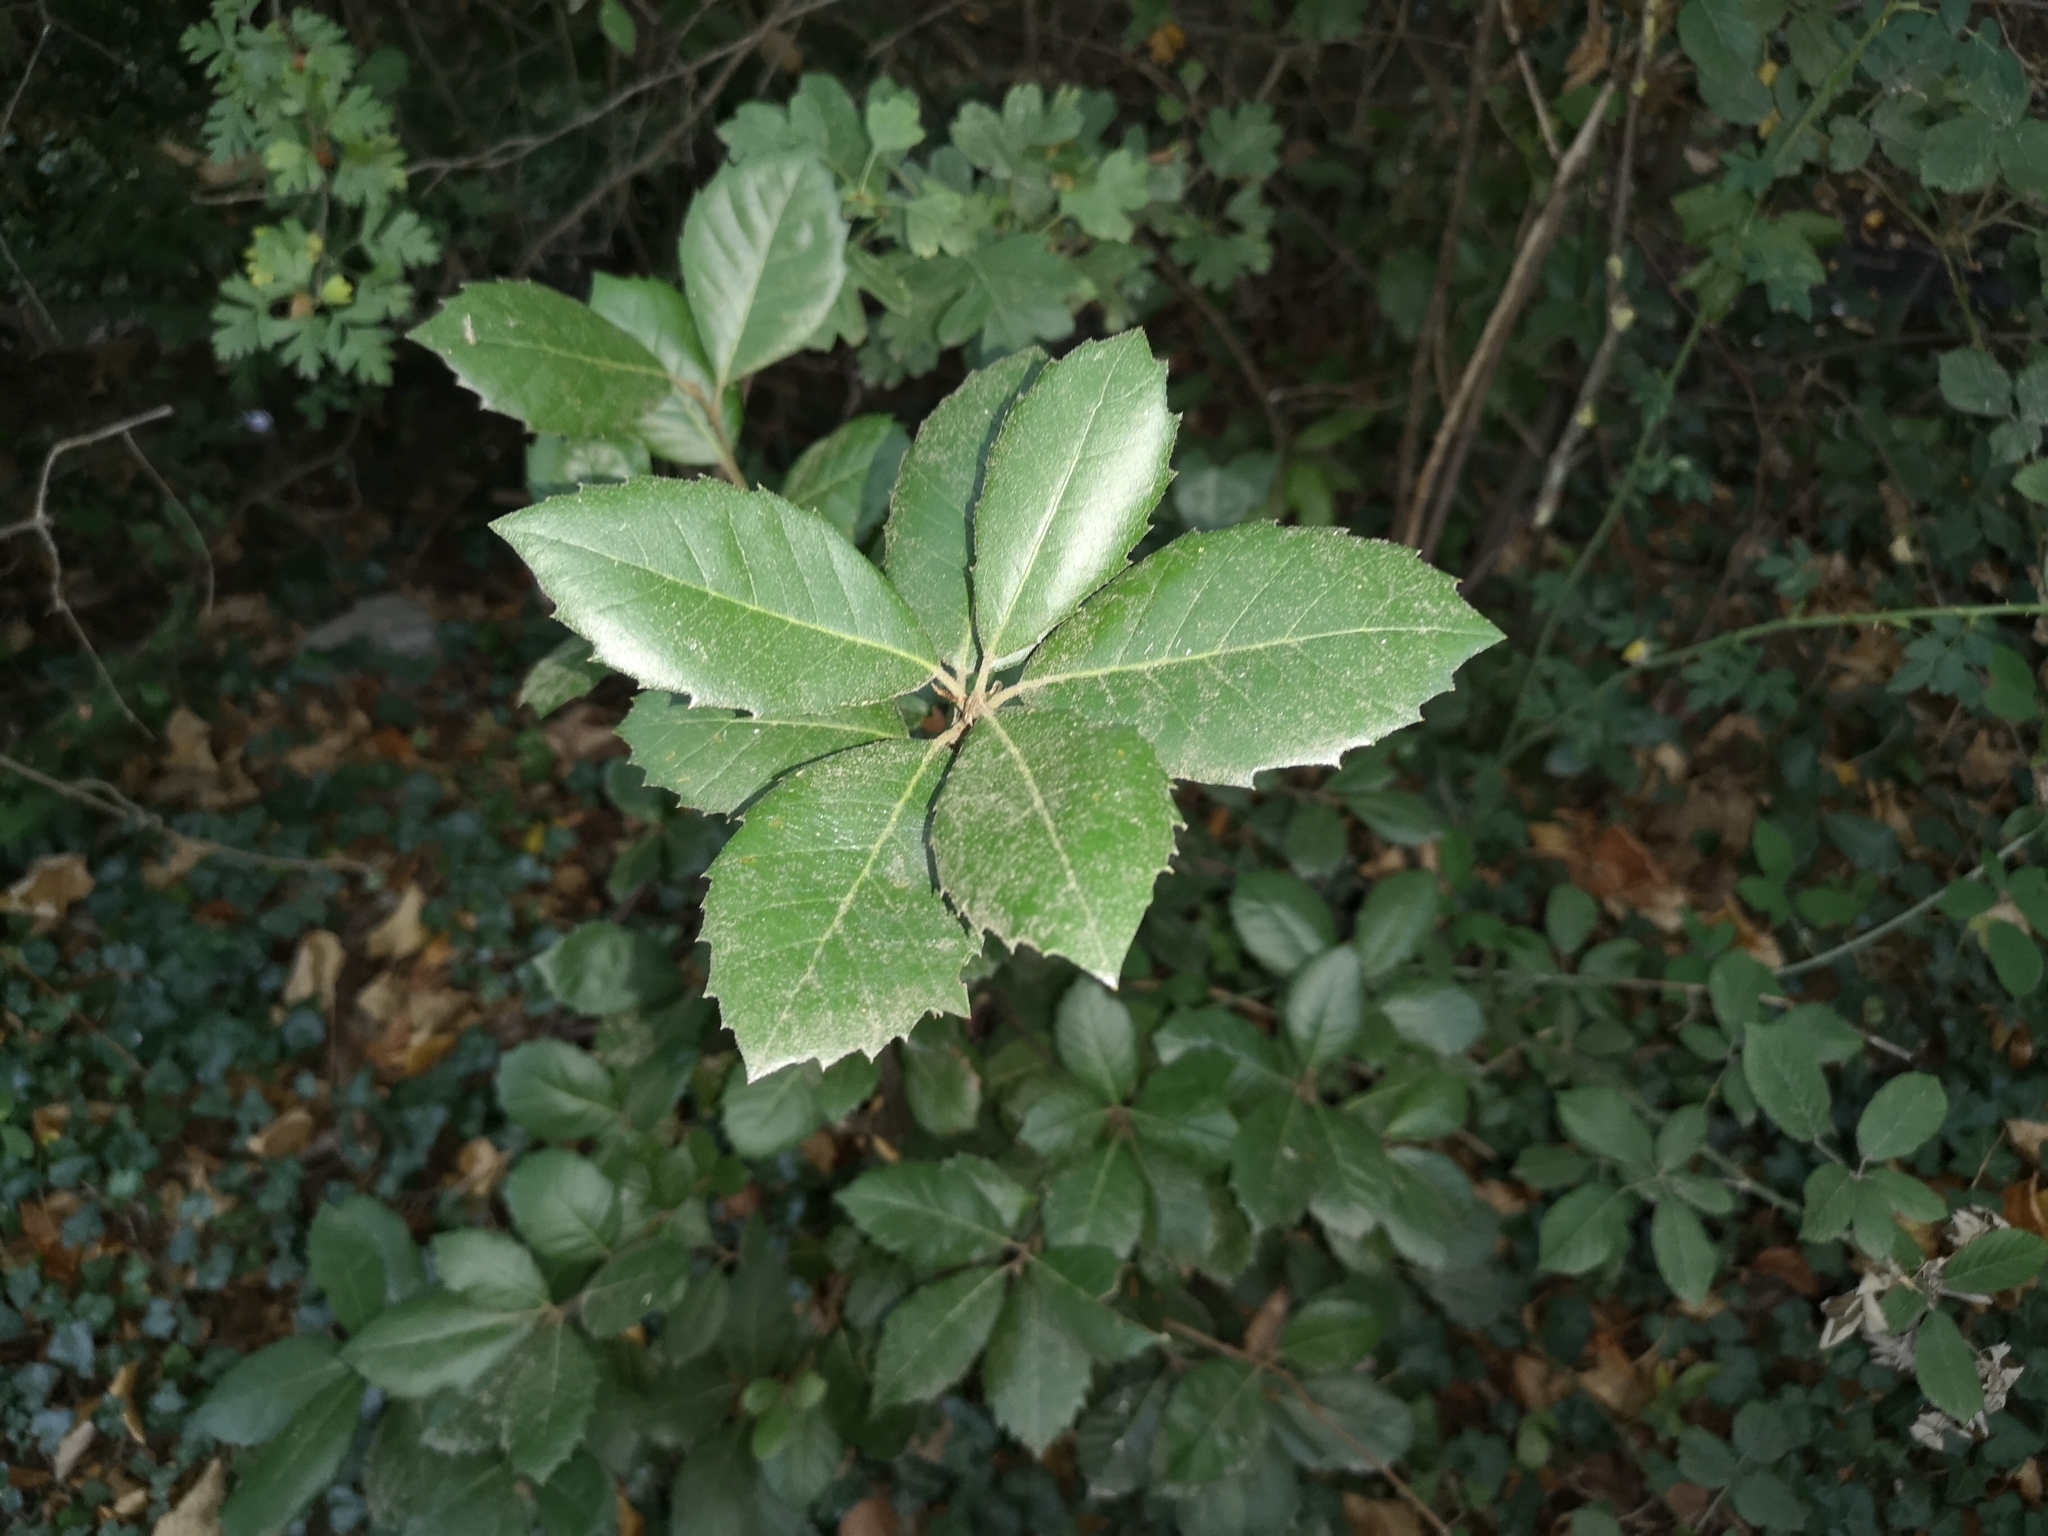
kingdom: Plantae
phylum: Tracheophyta
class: Magnoliopsida
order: Fagales
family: Fagaceae
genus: Quercus
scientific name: Quercus ilex
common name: Evergreen oak
